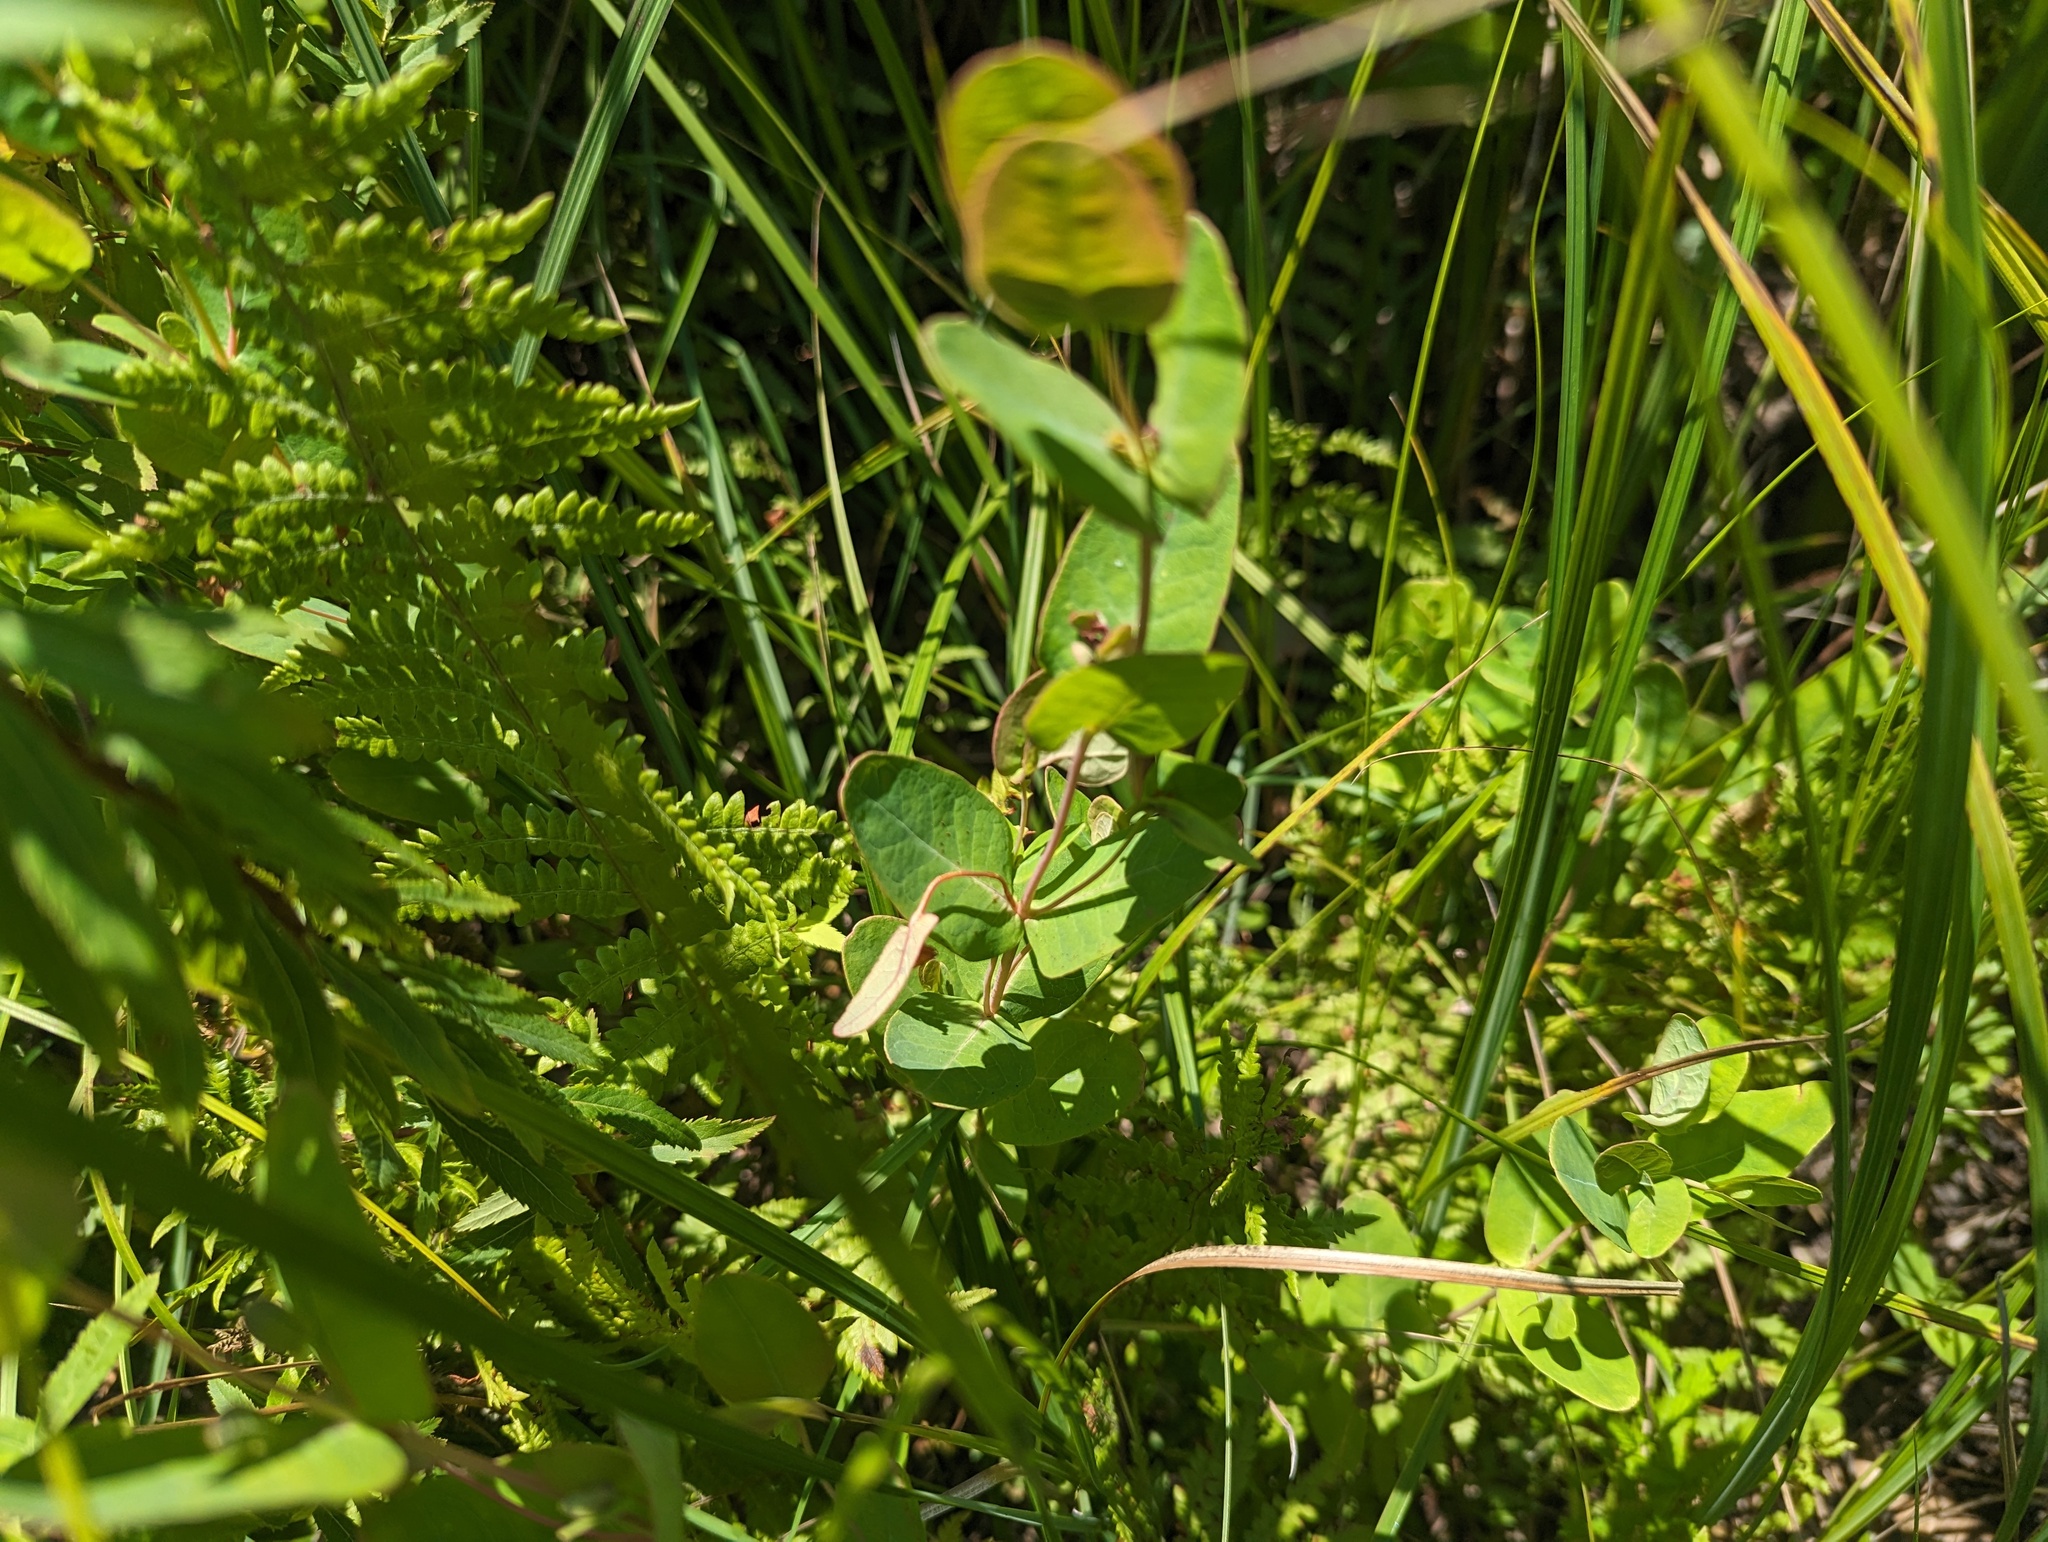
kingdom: Plantae
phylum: Tracheophyta
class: Magnoliopsida
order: Malpighiales
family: Hypericaceae
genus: Triadenum
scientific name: Triadenum fraseri
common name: Fraser's marsh st. johnswort
